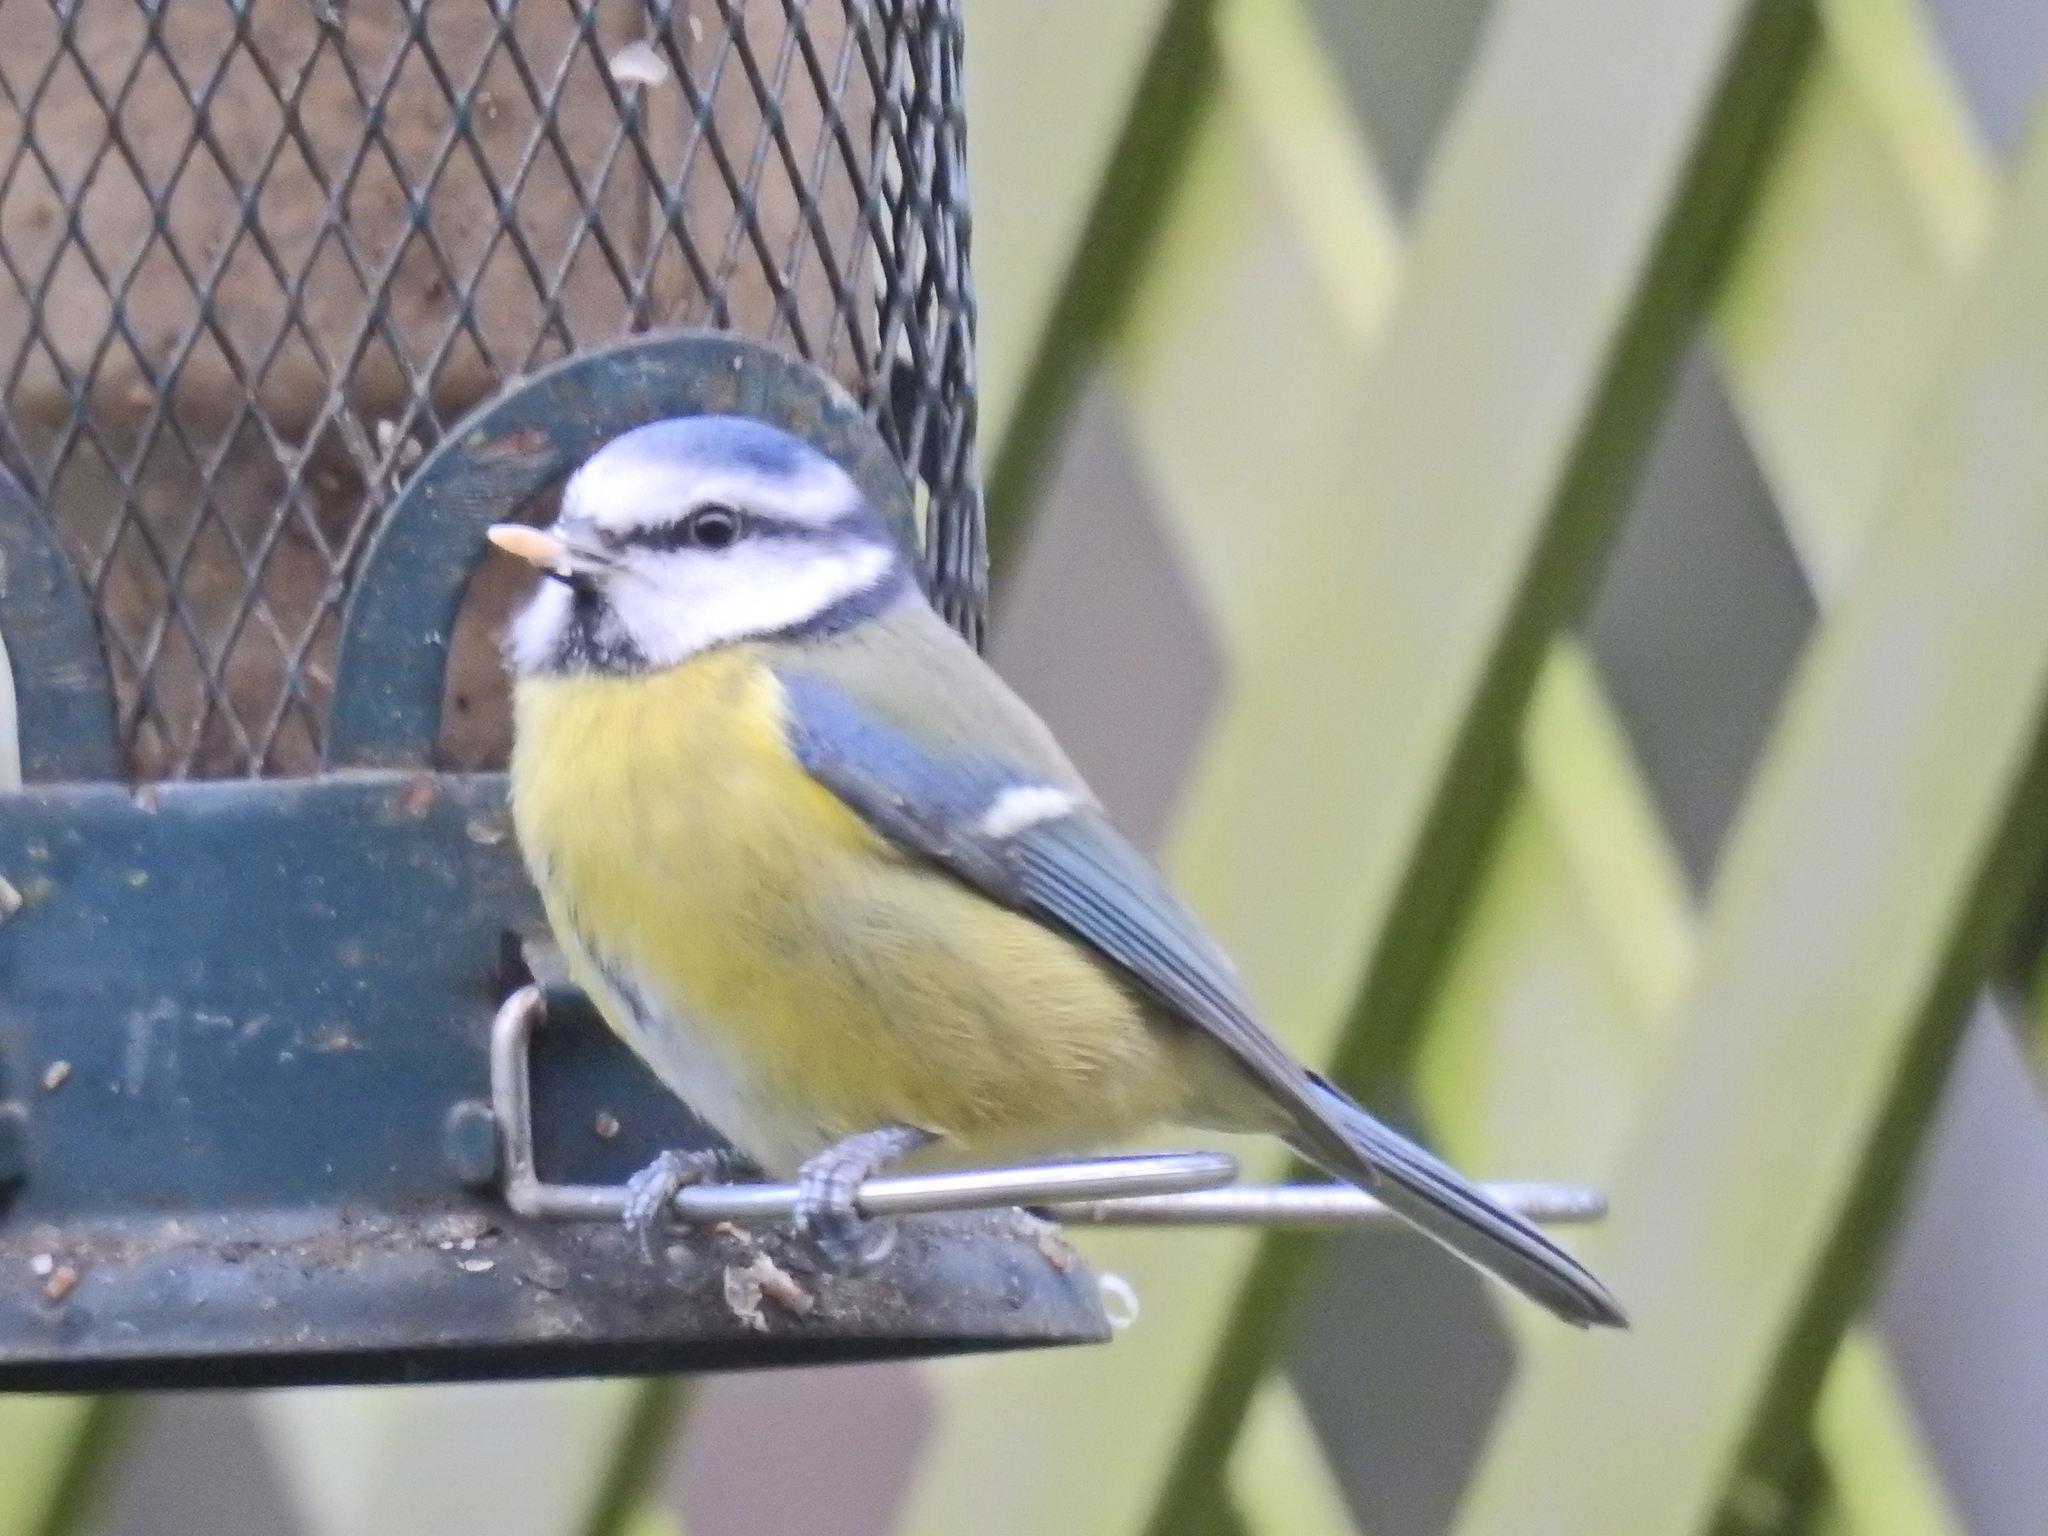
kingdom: Animalia
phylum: Chordata
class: Aves
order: Passeriformes
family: Paridae
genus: Cyanistes
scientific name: Cyanistes caeruleus
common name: Eurasian blue tit
